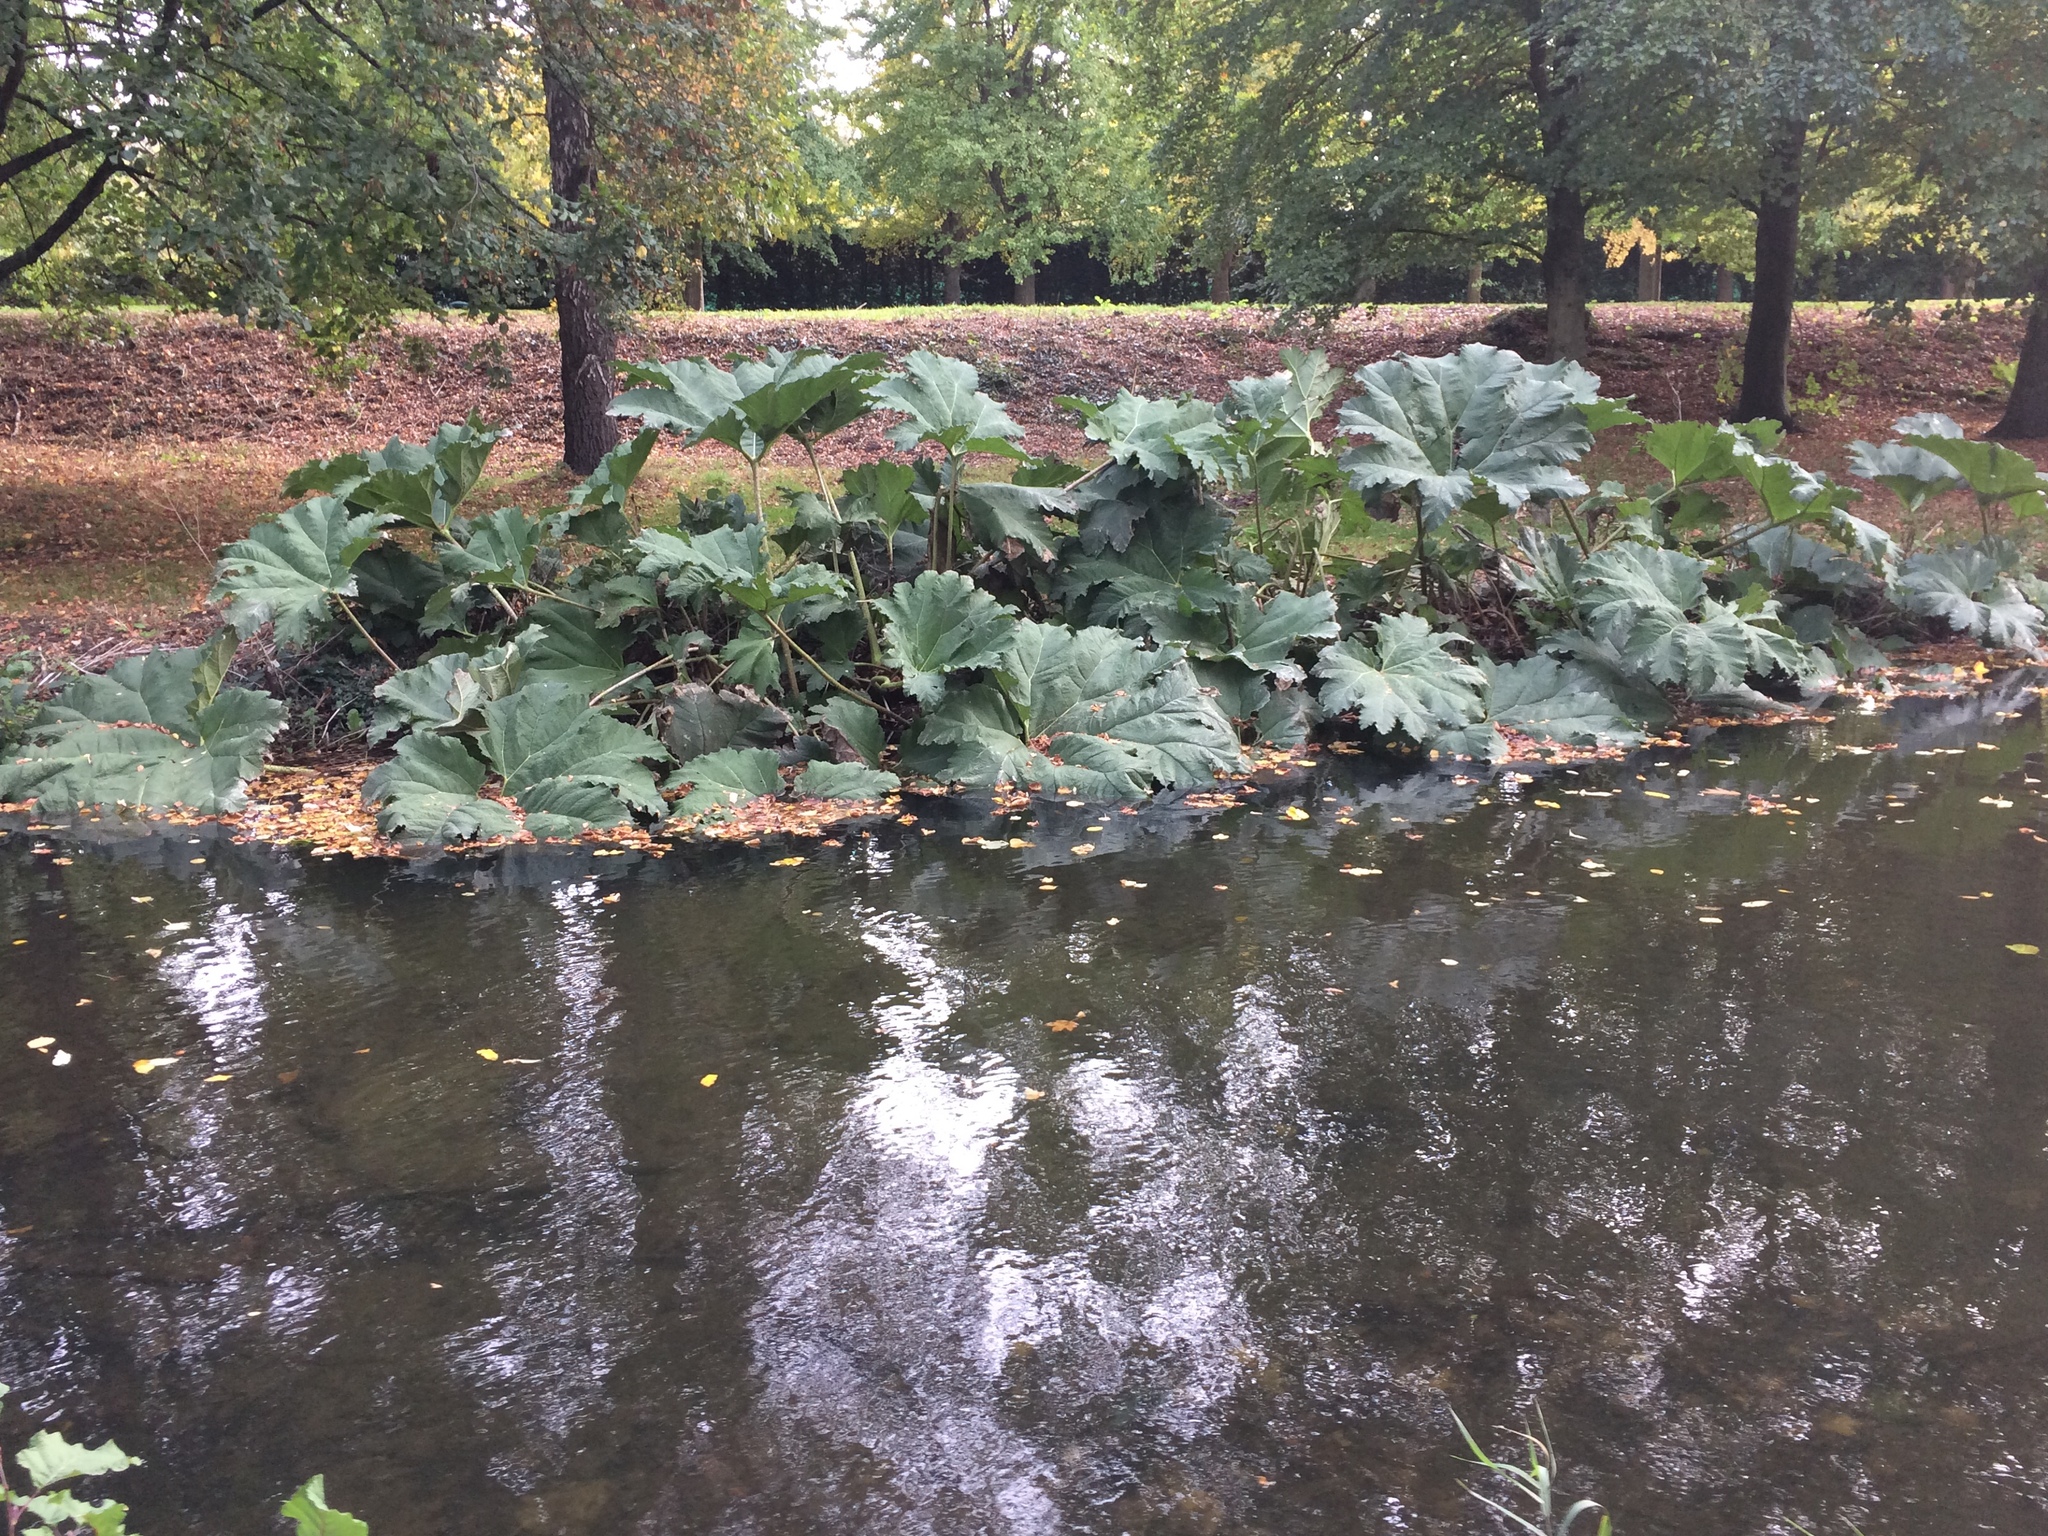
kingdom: Plantae
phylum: Tracheophyta
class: Magnoliopsida
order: Gunnerales
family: Gunneraceae
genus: Gunnera
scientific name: Gunnera tinctoria
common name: Giant-rhubarb
